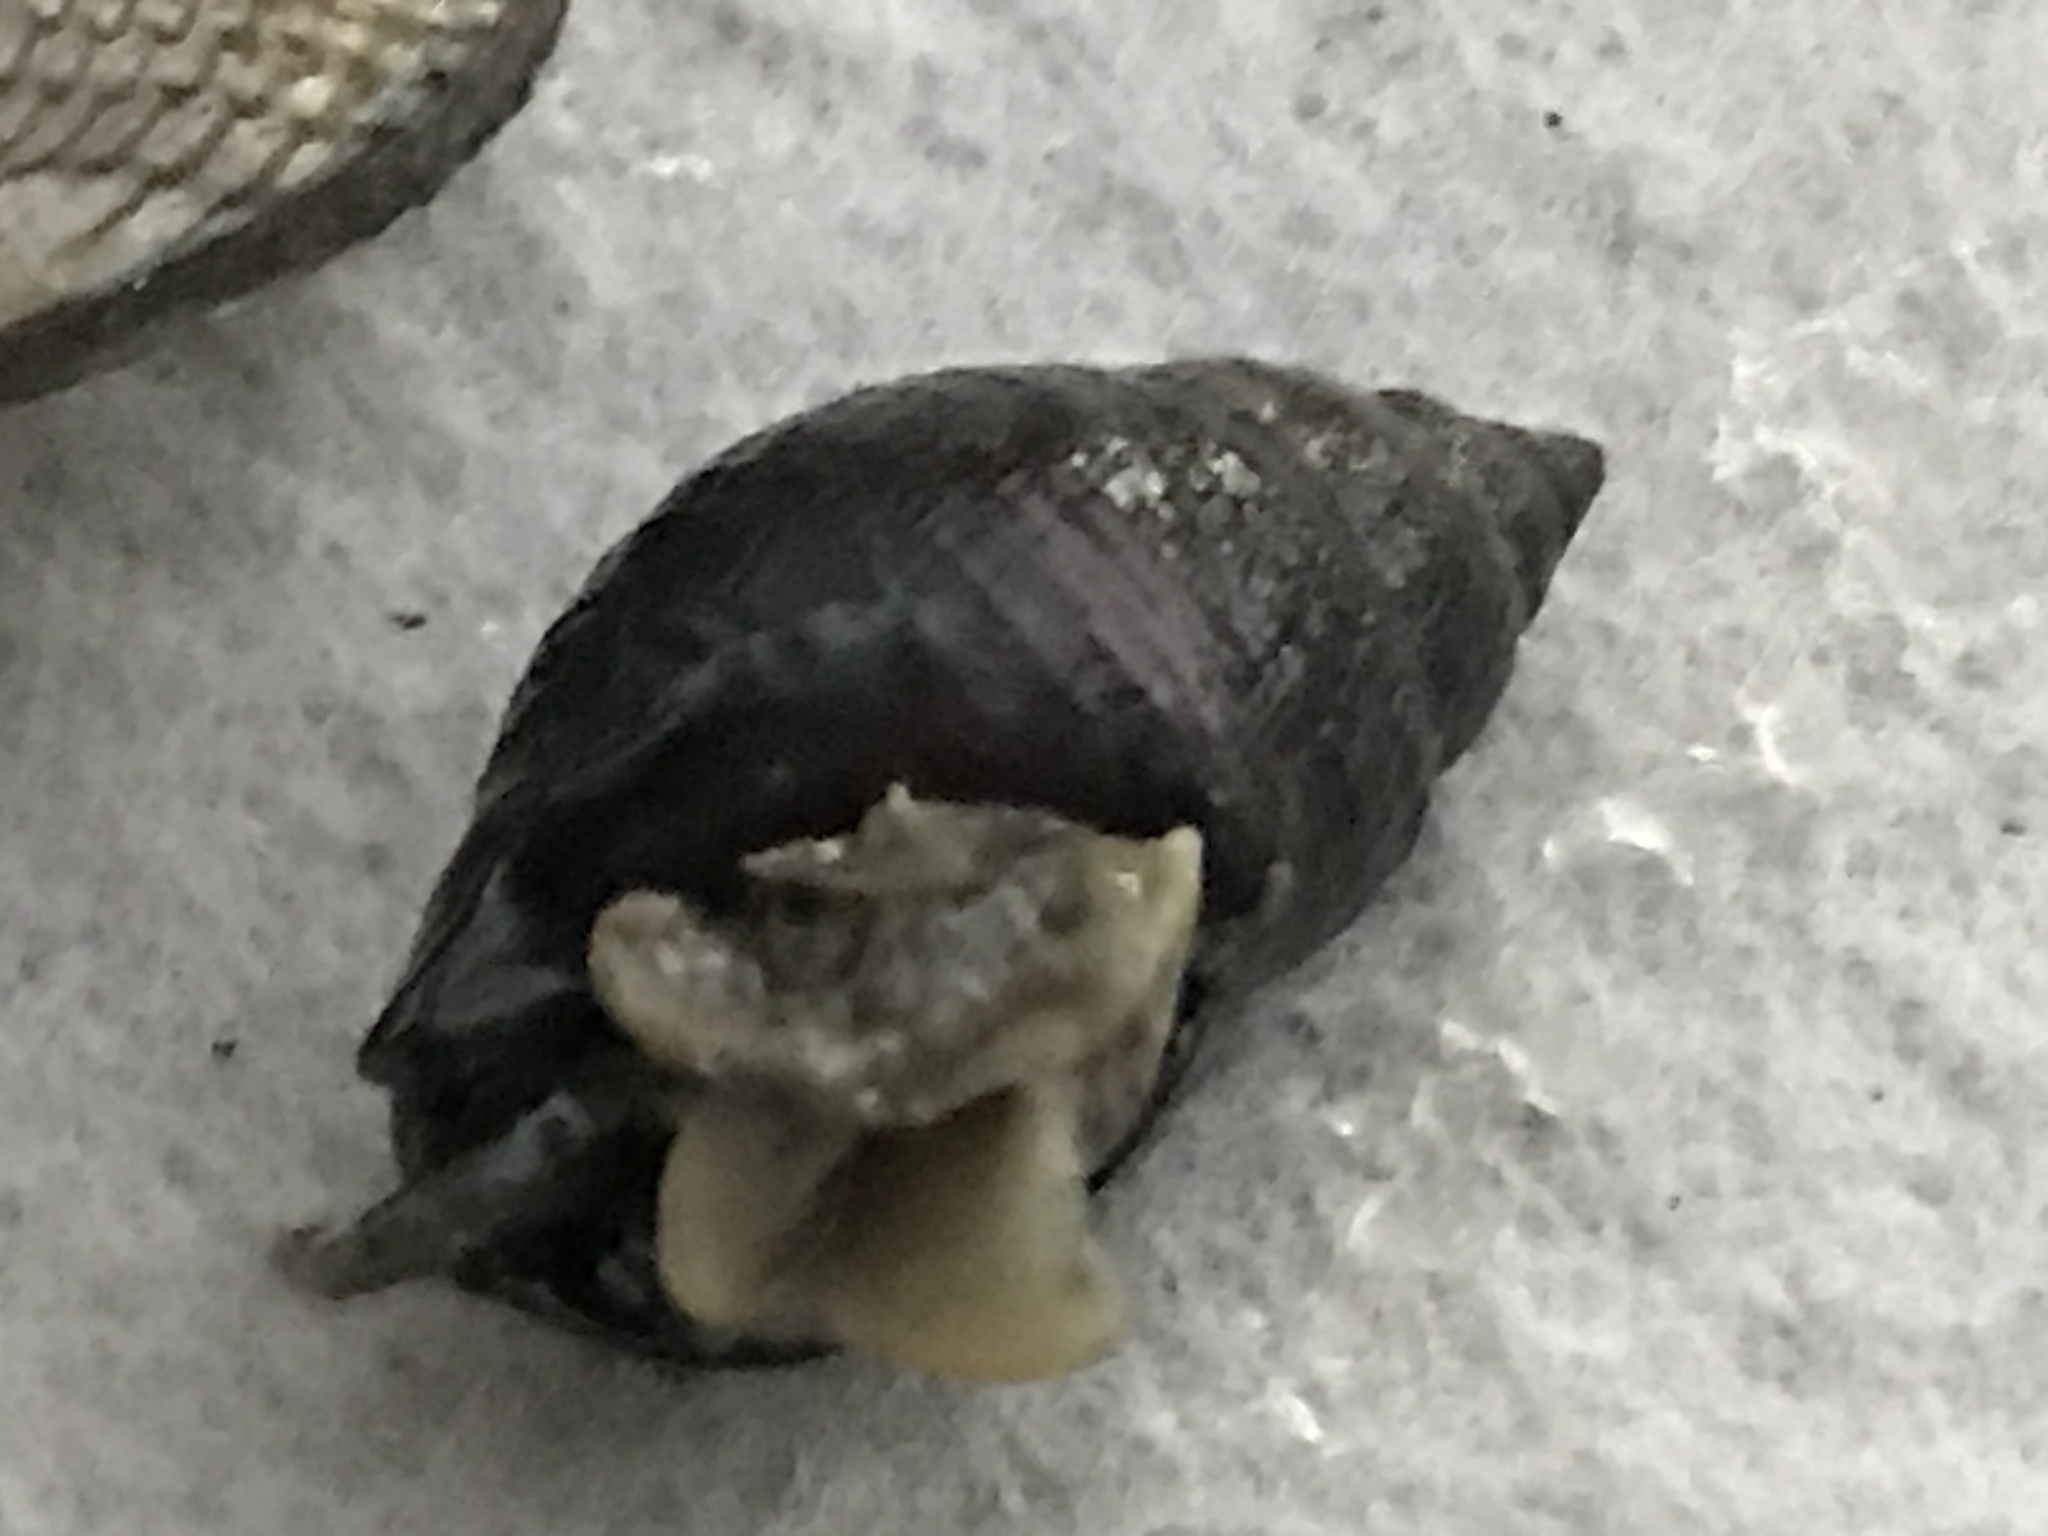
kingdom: Animalia
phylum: Mollusca
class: Gastropoda
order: Neogastropoda
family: Nassariidae
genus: Ilyanassa
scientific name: Ilyanassa obsoleta
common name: Eastern mudsnail
